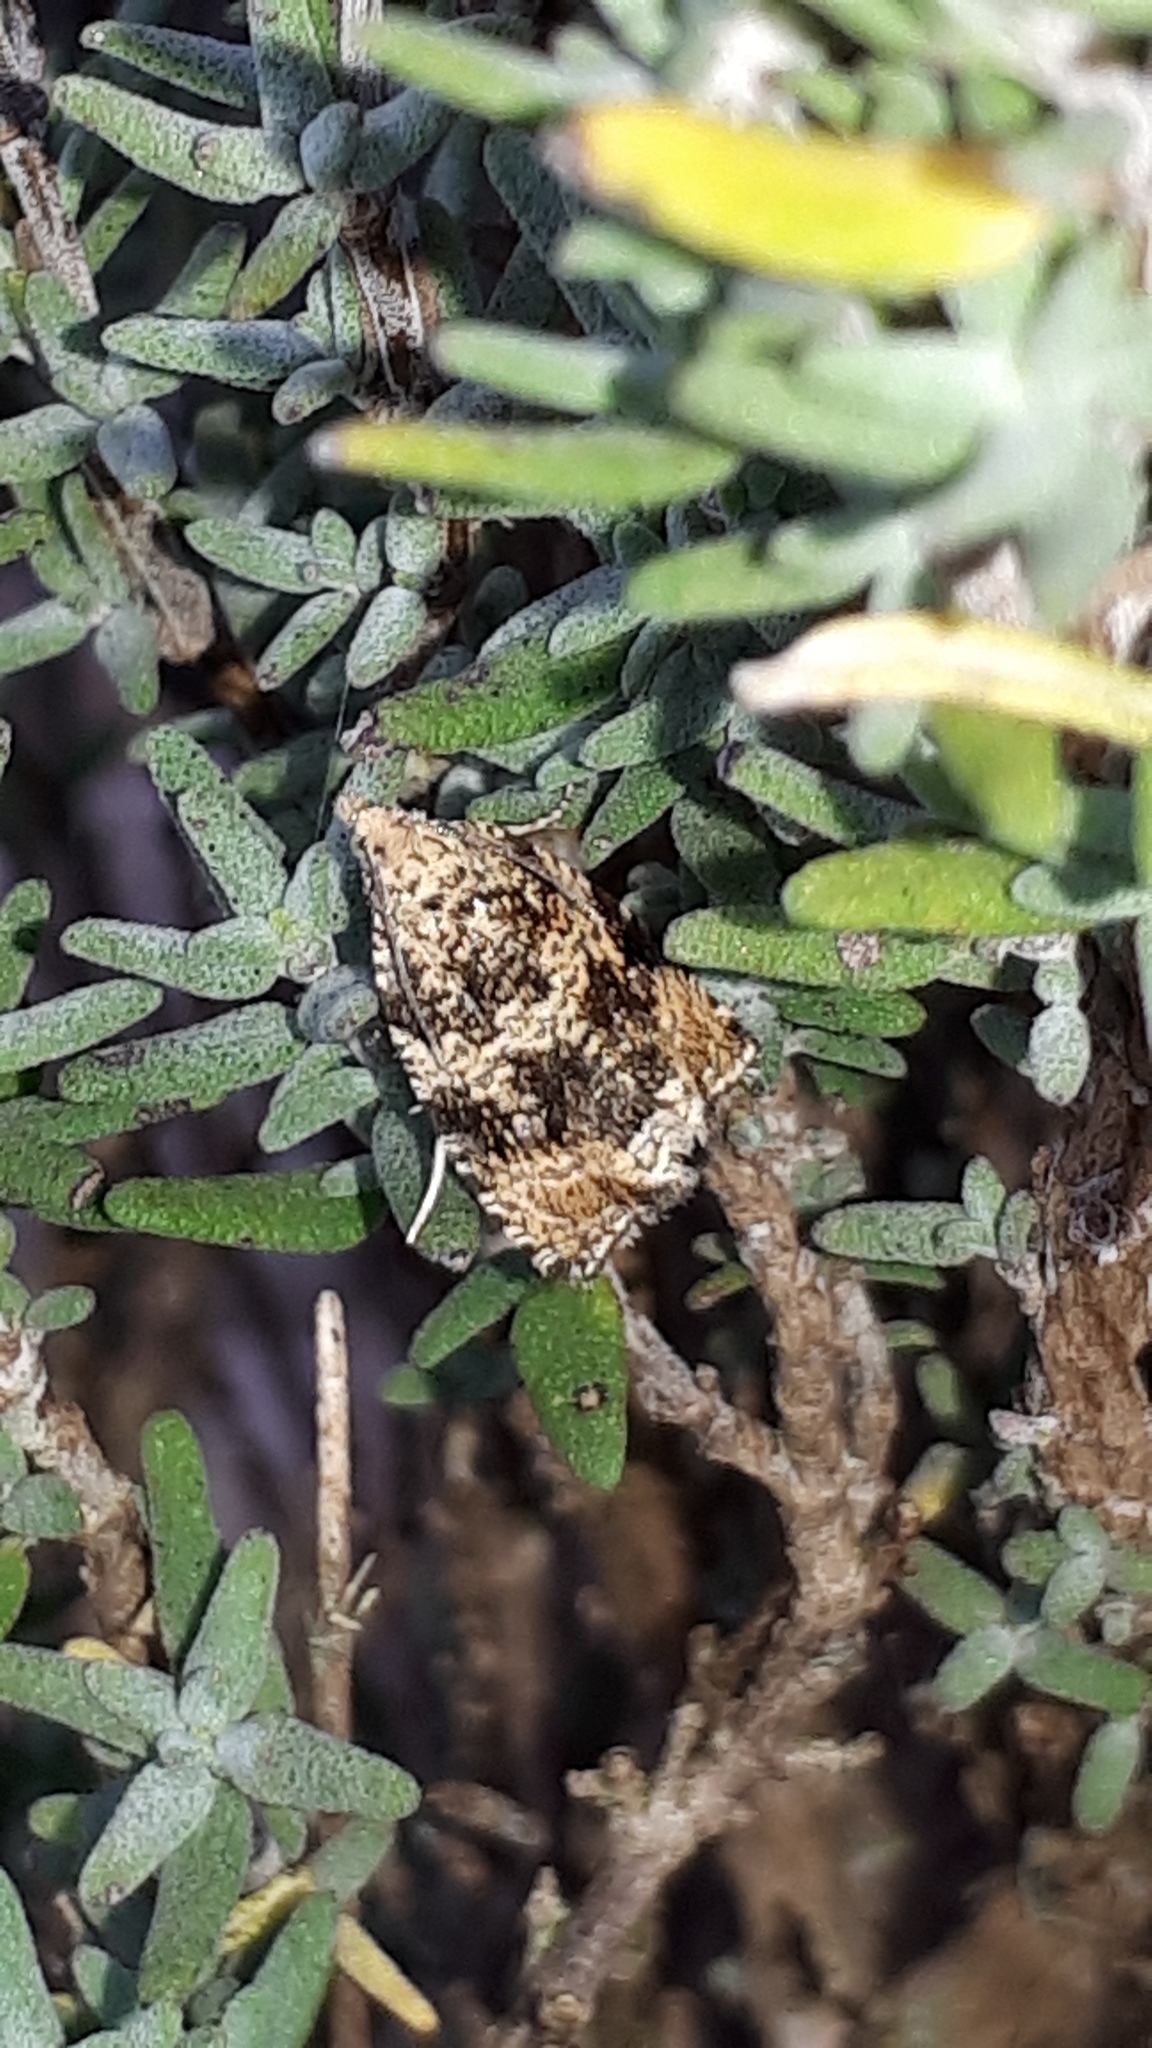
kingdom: Animalia
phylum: Arthropoda
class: Insecta
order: Lepidoptera
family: Tortricidae
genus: Syricoris
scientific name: Syricoris lacunana
